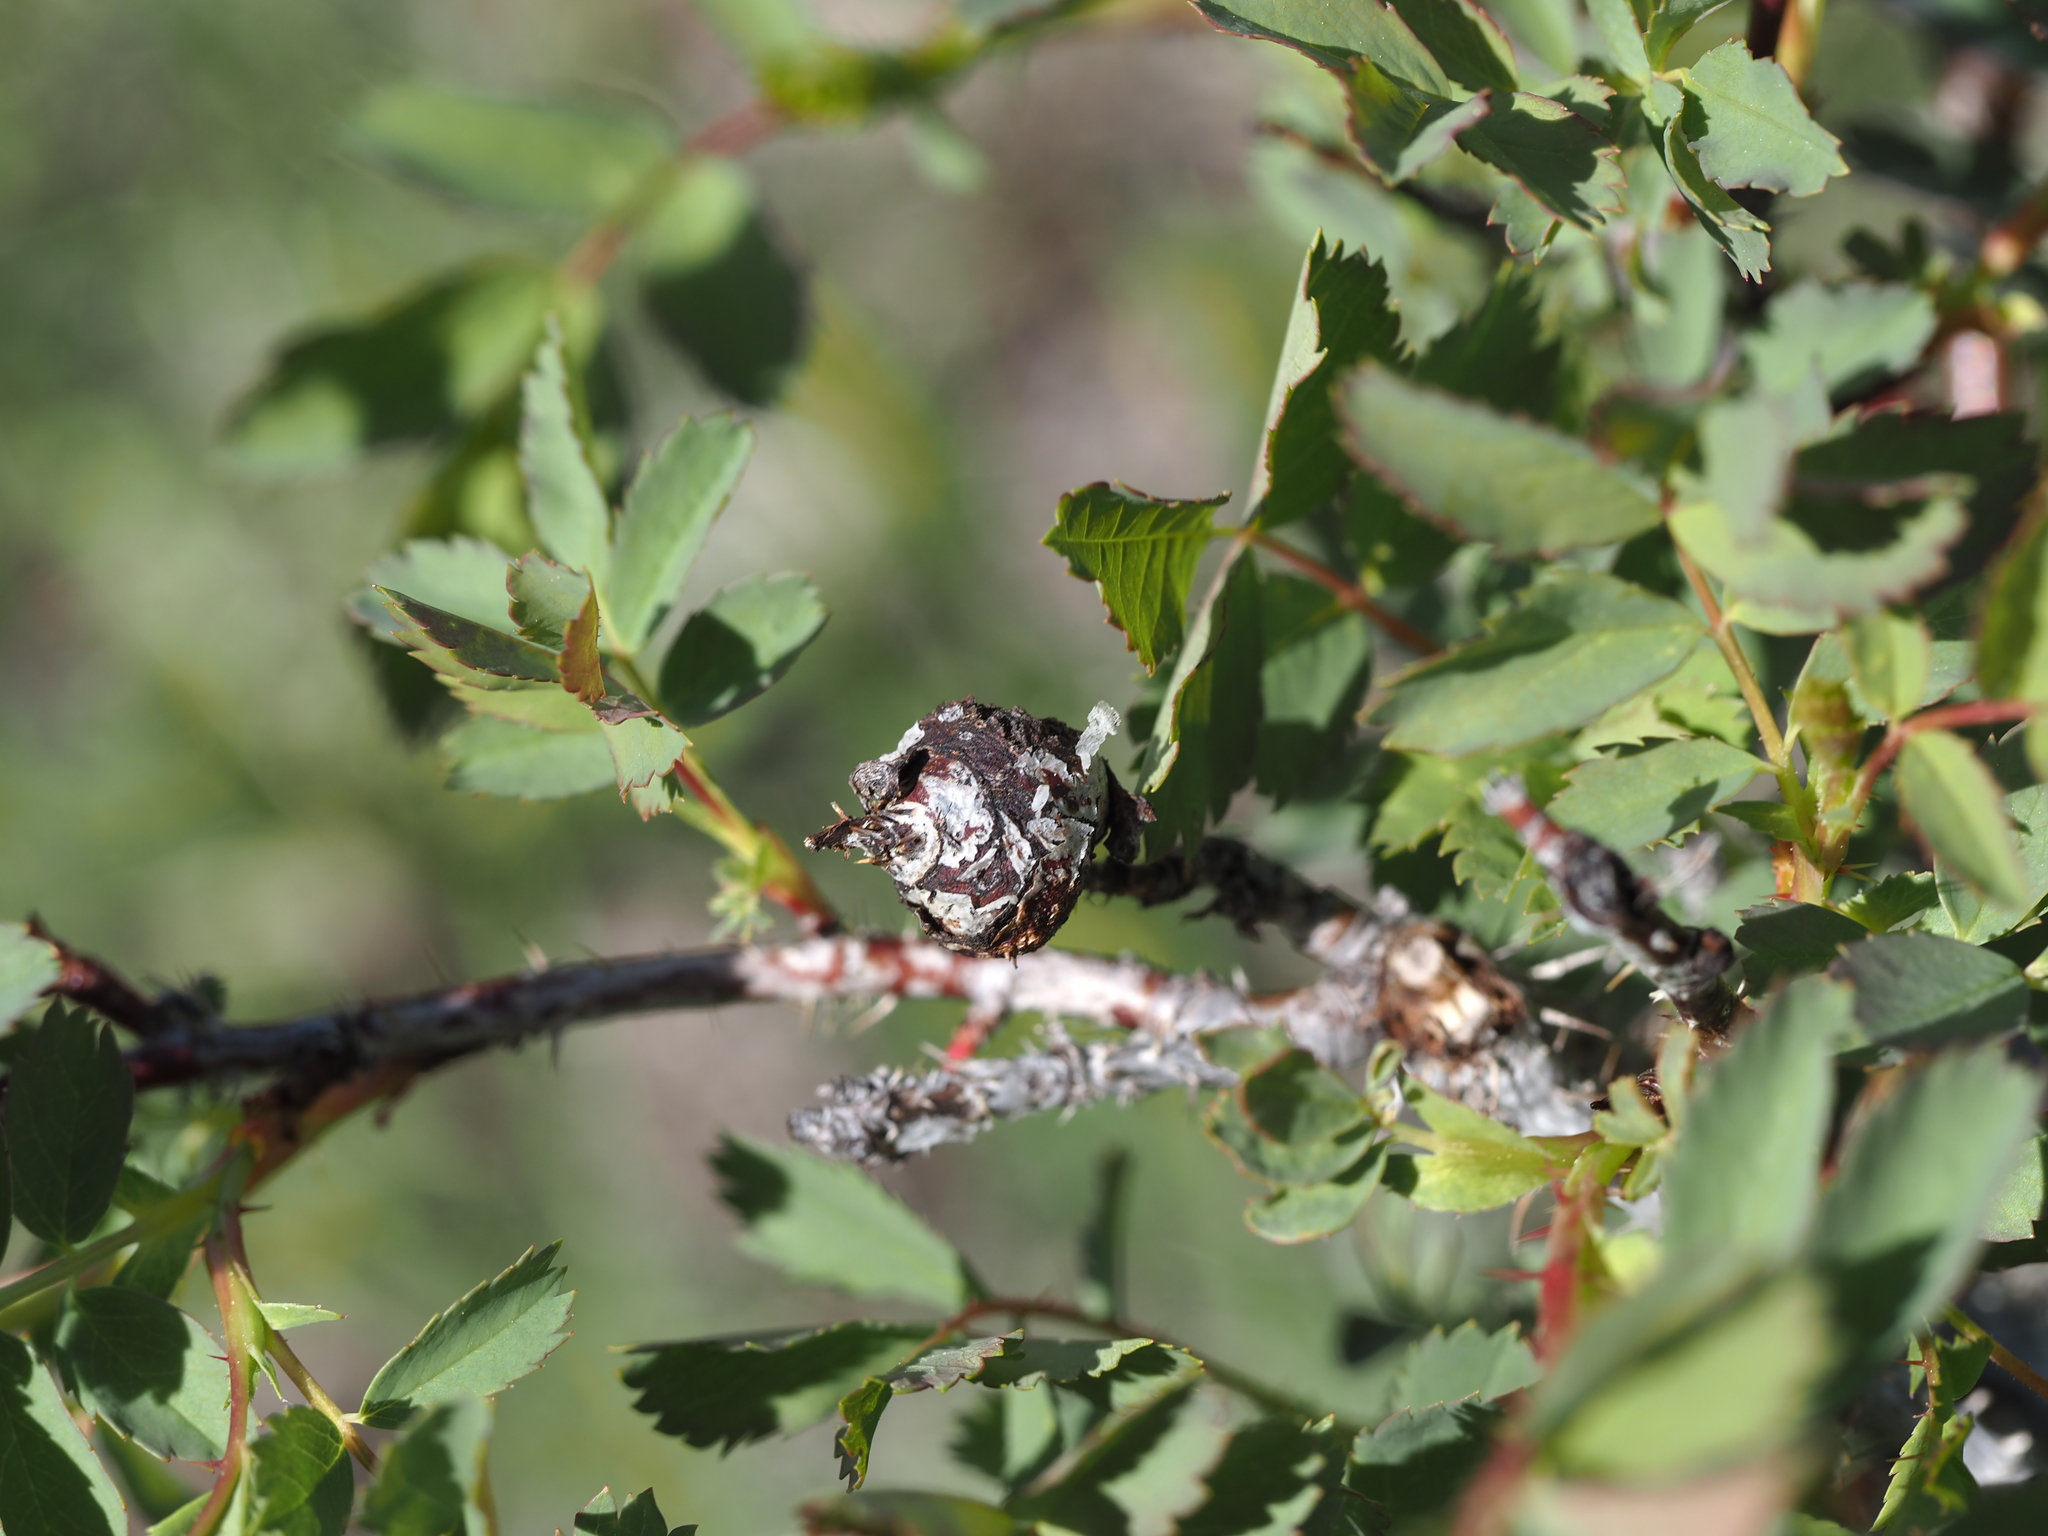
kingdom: Animalia
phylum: Arthropoda
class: Insecta
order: Hymenoptera
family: Cynipidae
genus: Diplolepis
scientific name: Diplolepis spinosa
